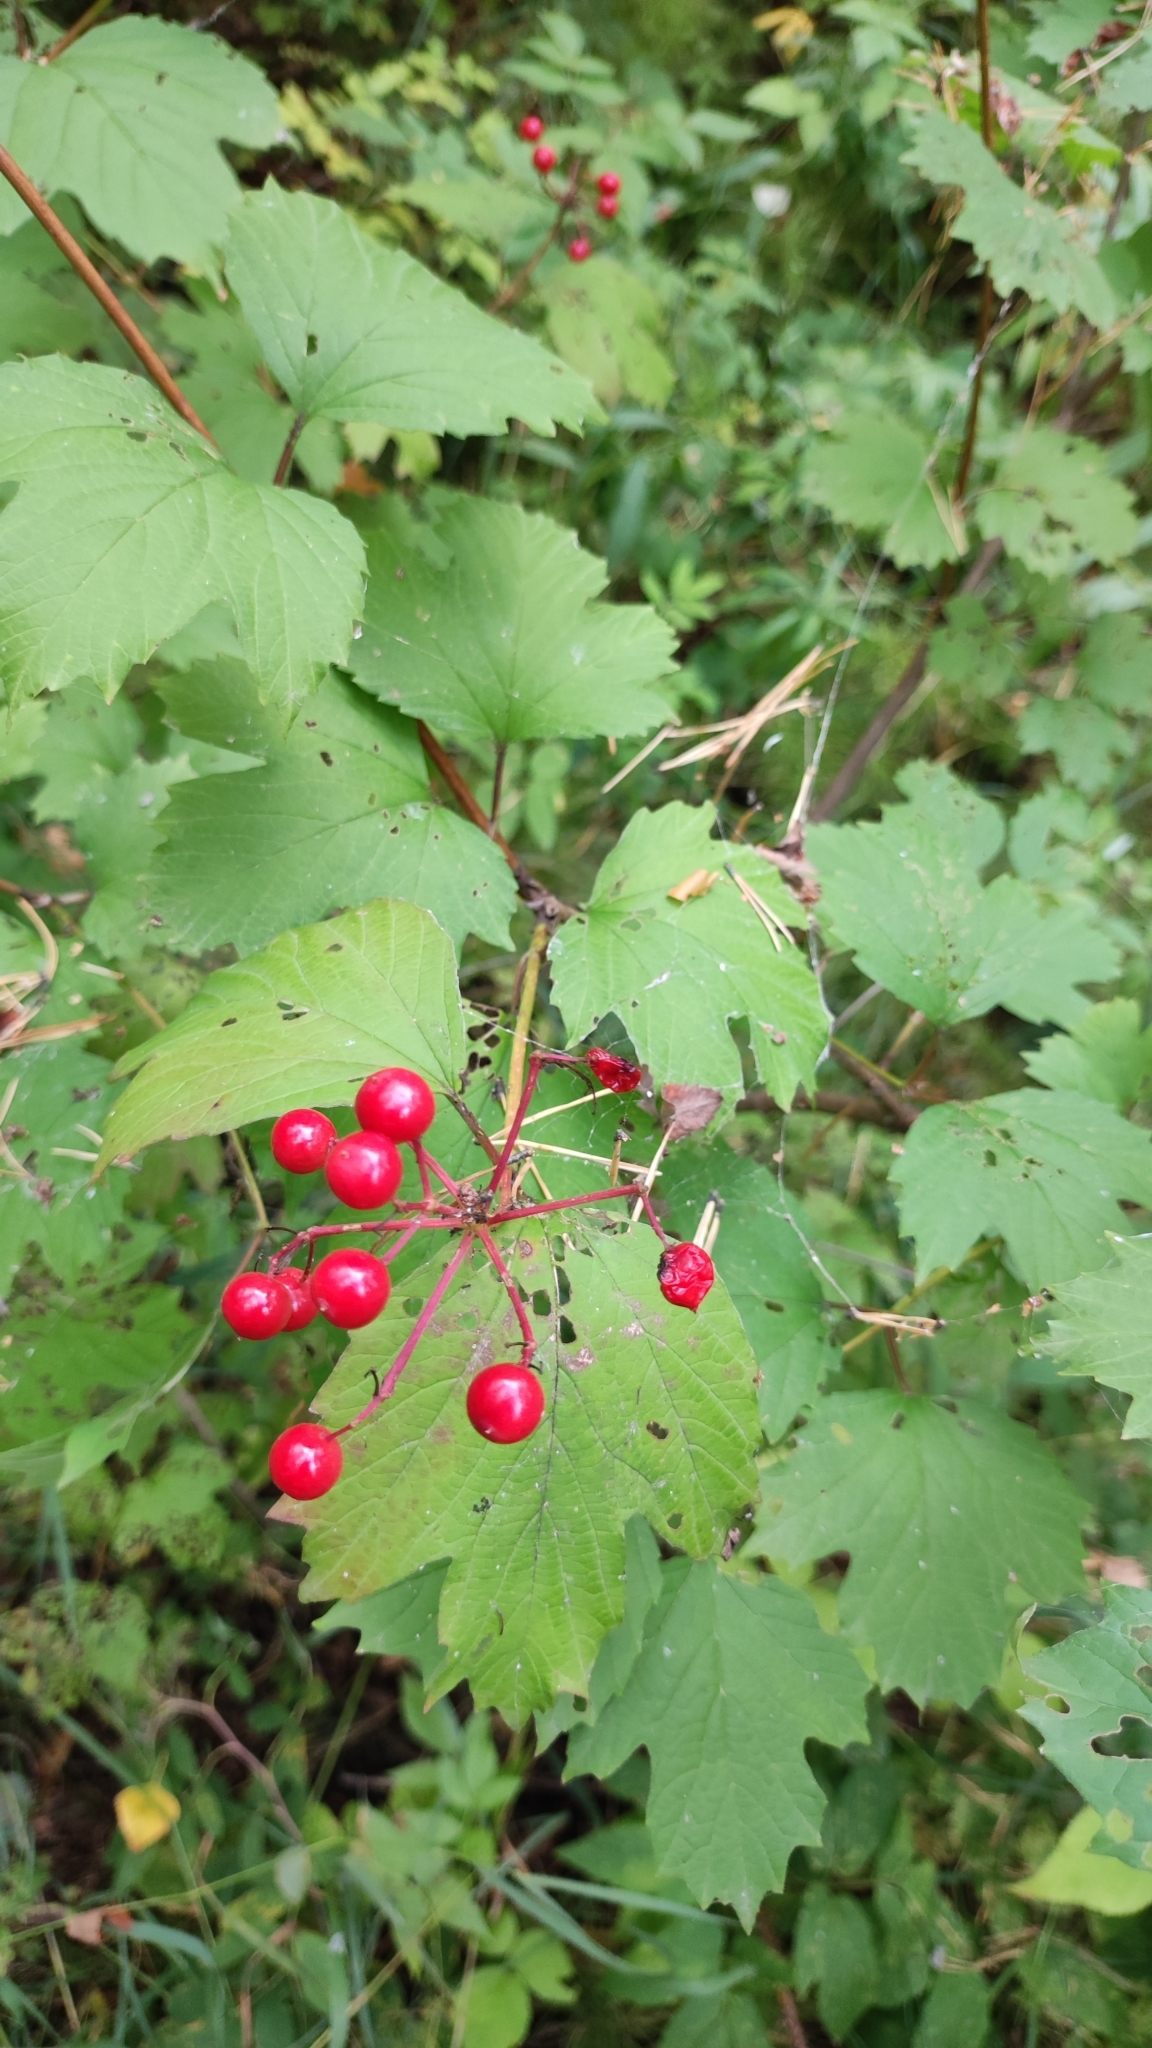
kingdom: Plantae
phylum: Tracheophyta
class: Magnoliopsida
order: Dipsacales
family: Viburnaceae
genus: Viburnum
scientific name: Viburnum opulus
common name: Guelder-rose
